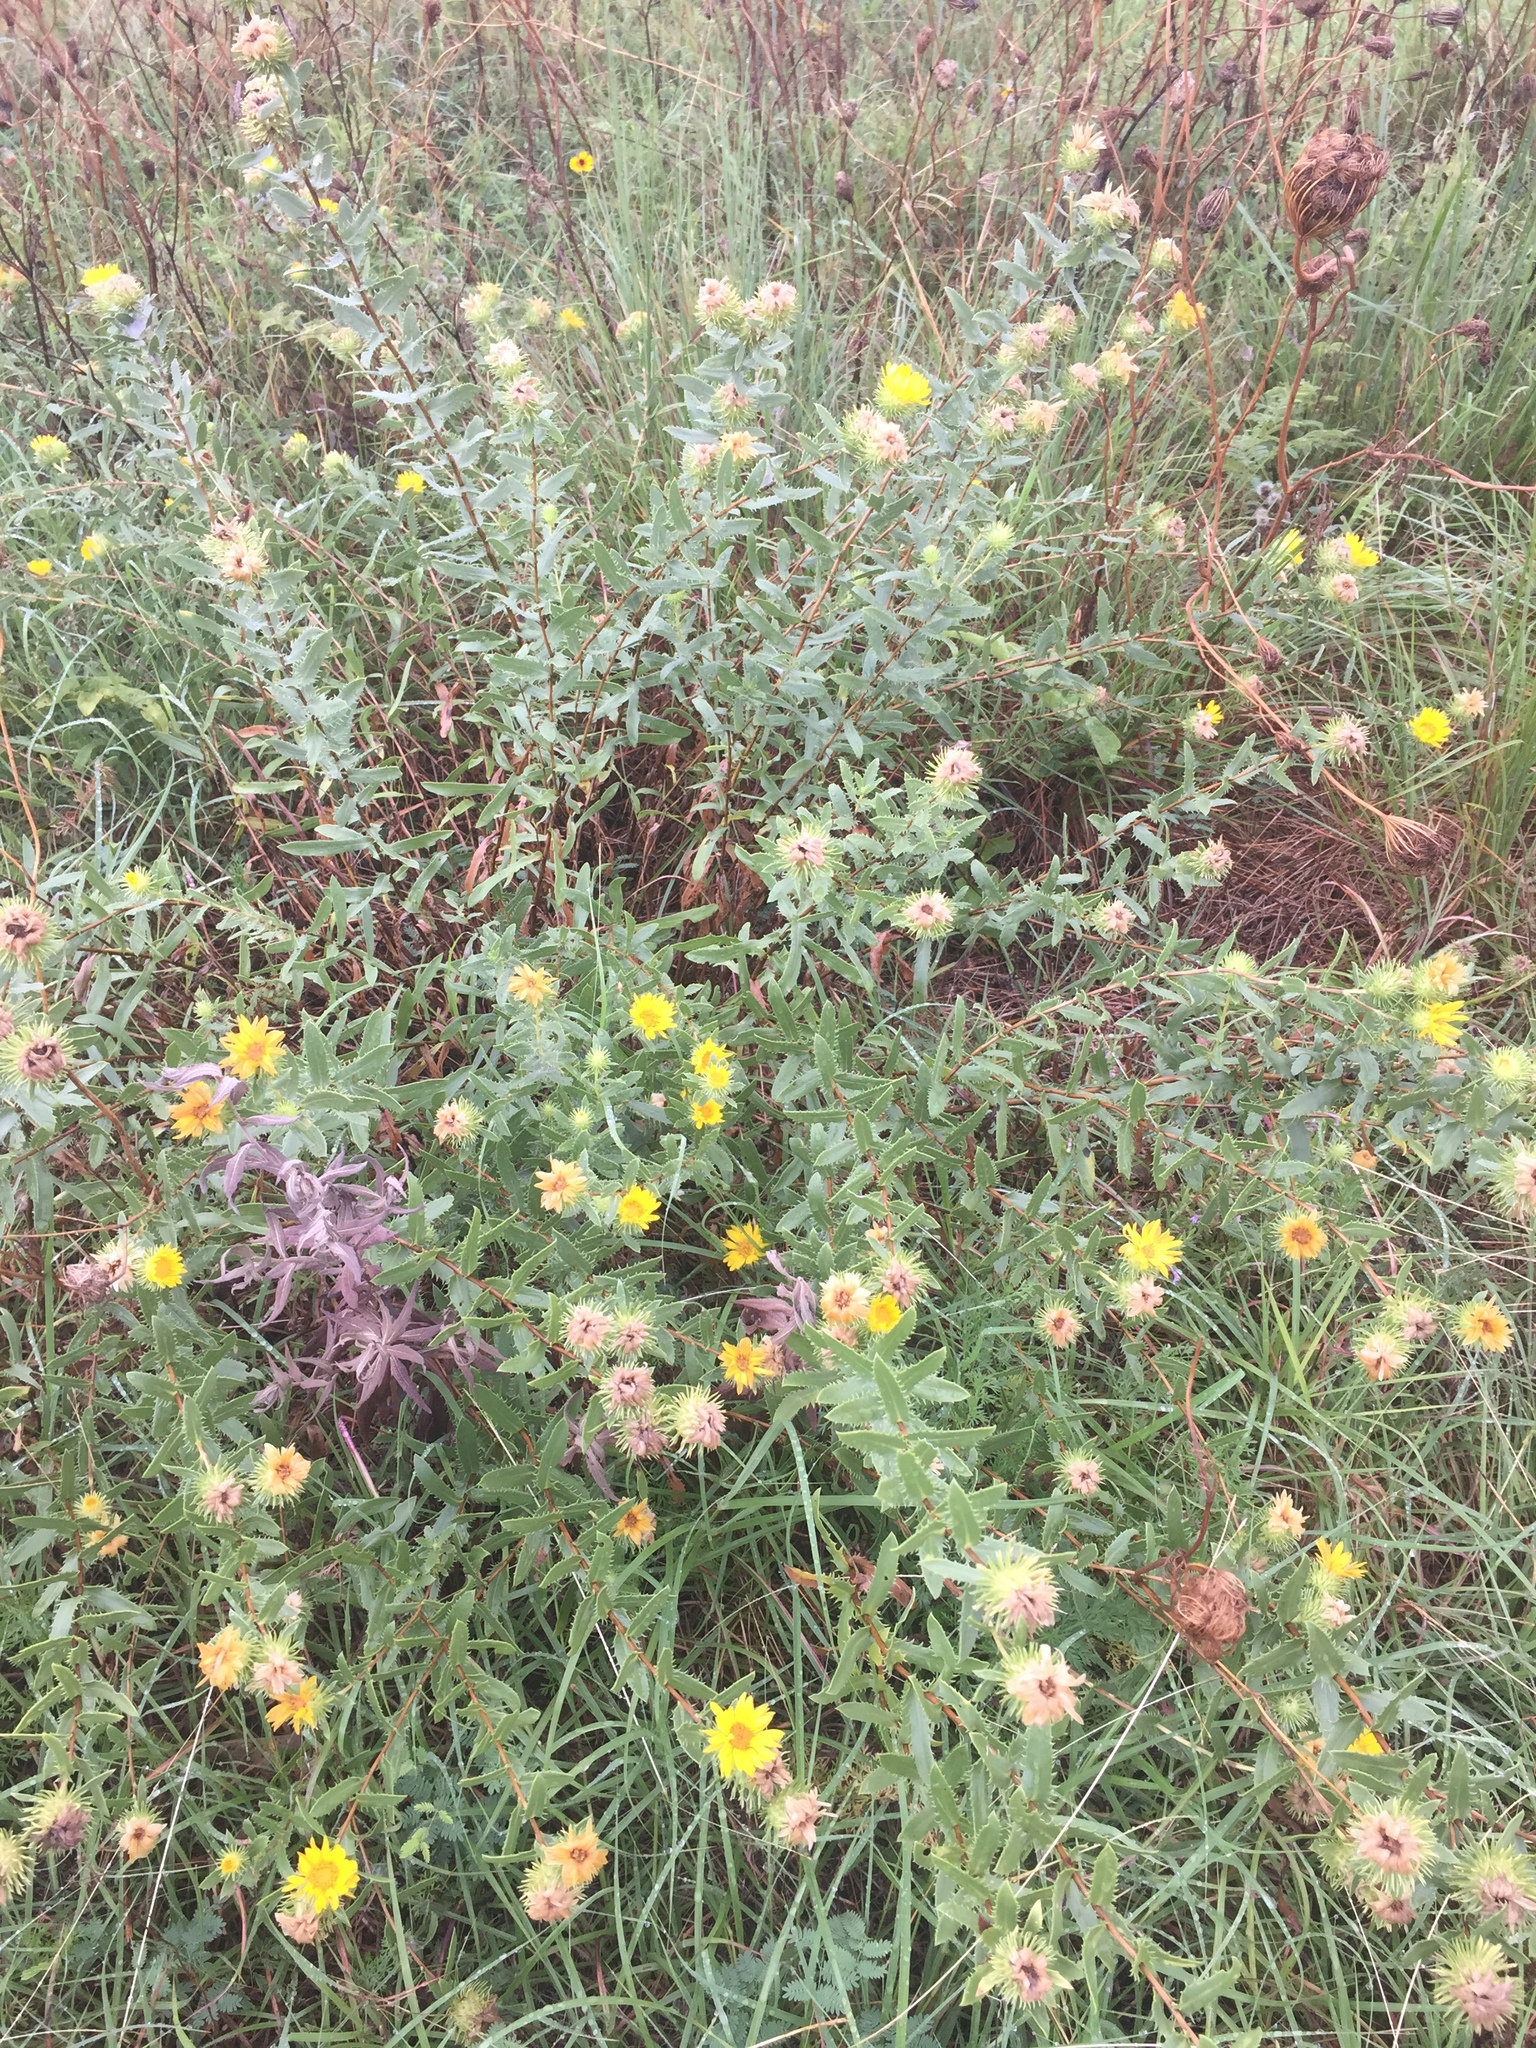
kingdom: Plantae
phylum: Tracheophyta
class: Magnoliopsida
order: Asterales
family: Asteraceae
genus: Grindelia
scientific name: Grindelia lanceolata
